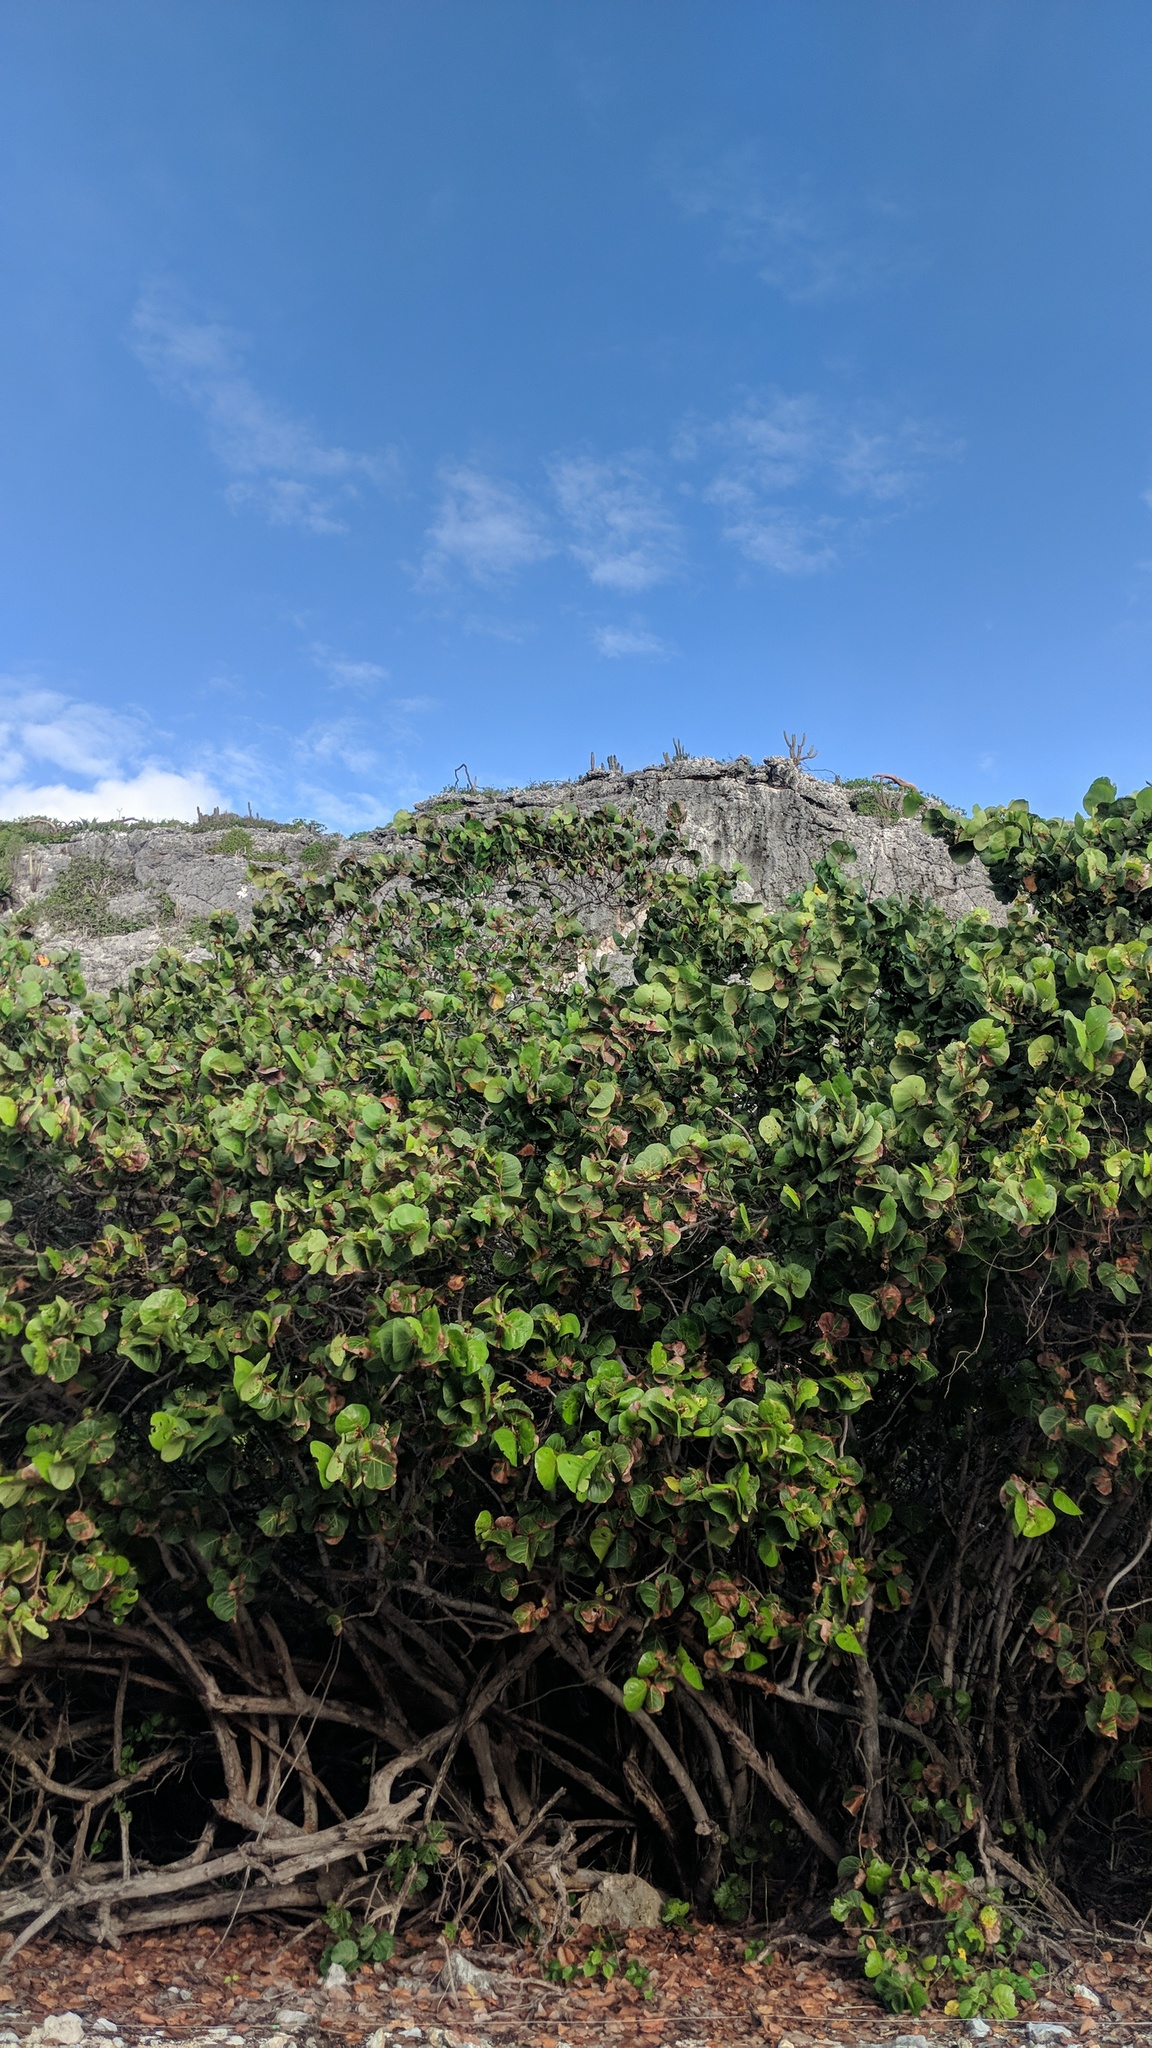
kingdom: Plantae
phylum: Tracheophyta
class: Magnoliopsida
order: Caryophyllales
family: Polygonaceae
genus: Coccoloba
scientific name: Coccoloba uvifera
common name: Seagrape
